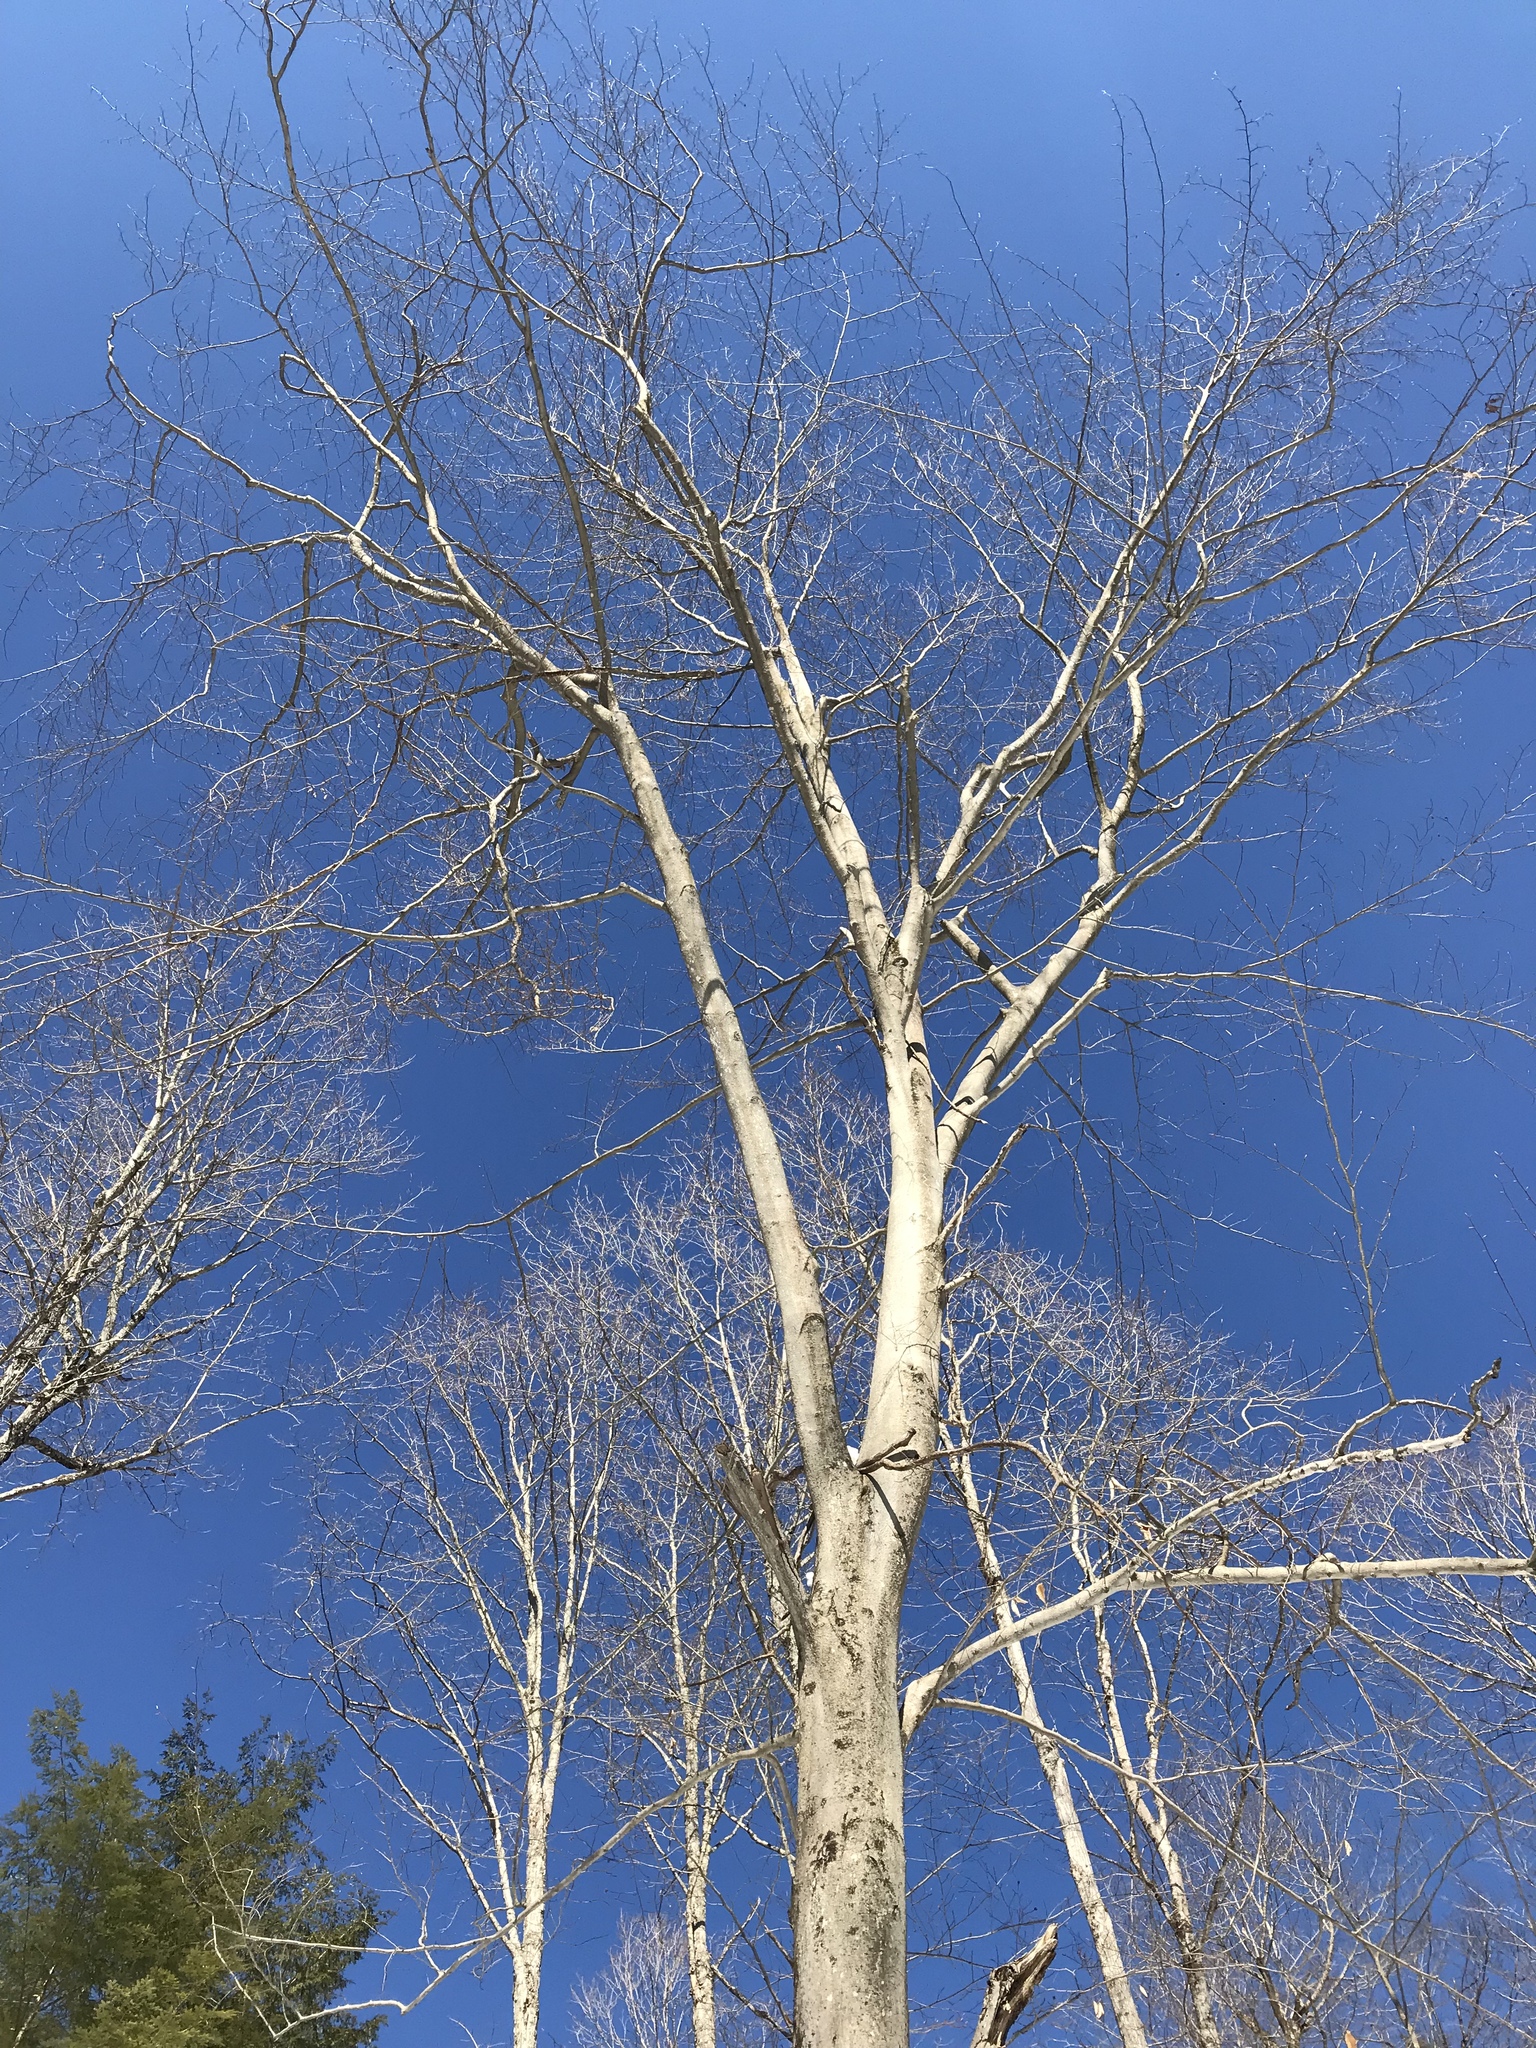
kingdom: Plantae
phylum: Tracheophyta
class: Magnoliopsida
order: Fagales
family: Fagaceae
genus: Fagus
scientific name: Fagus grandifolia
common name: American beech
